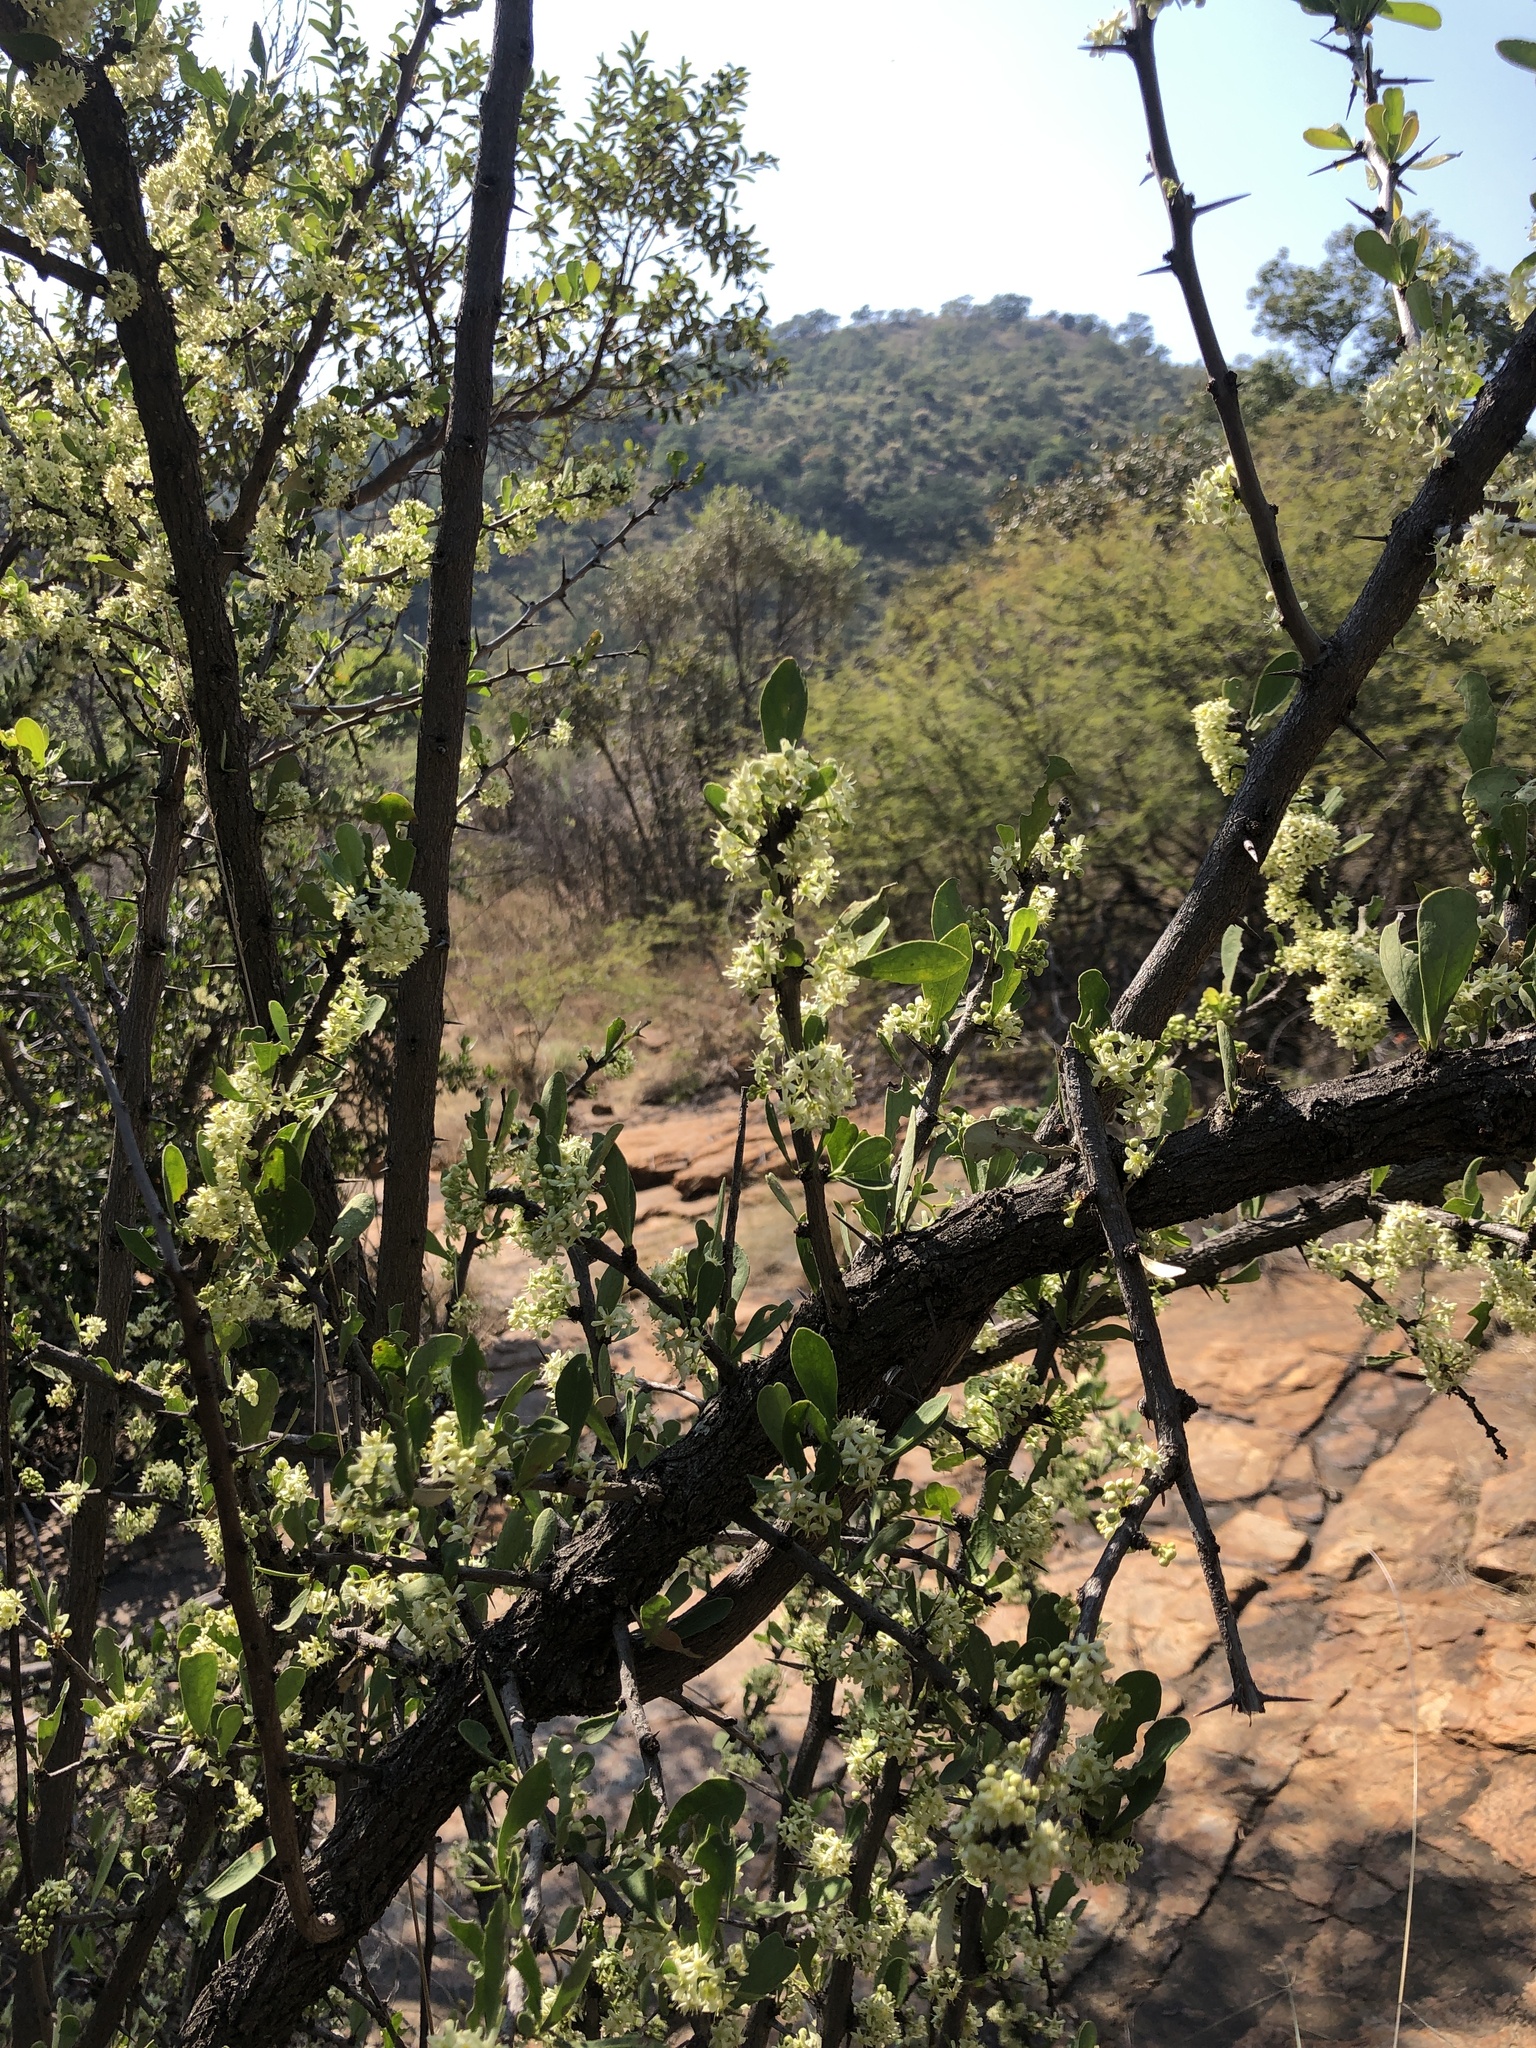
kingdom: Plantae
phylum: Tracheophyta
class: Magnoliopsida
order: Celastrales
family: Celastraceae
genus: Gymnosporia
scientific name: Gymnosporia buxifolia
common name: Common spike-thorn
